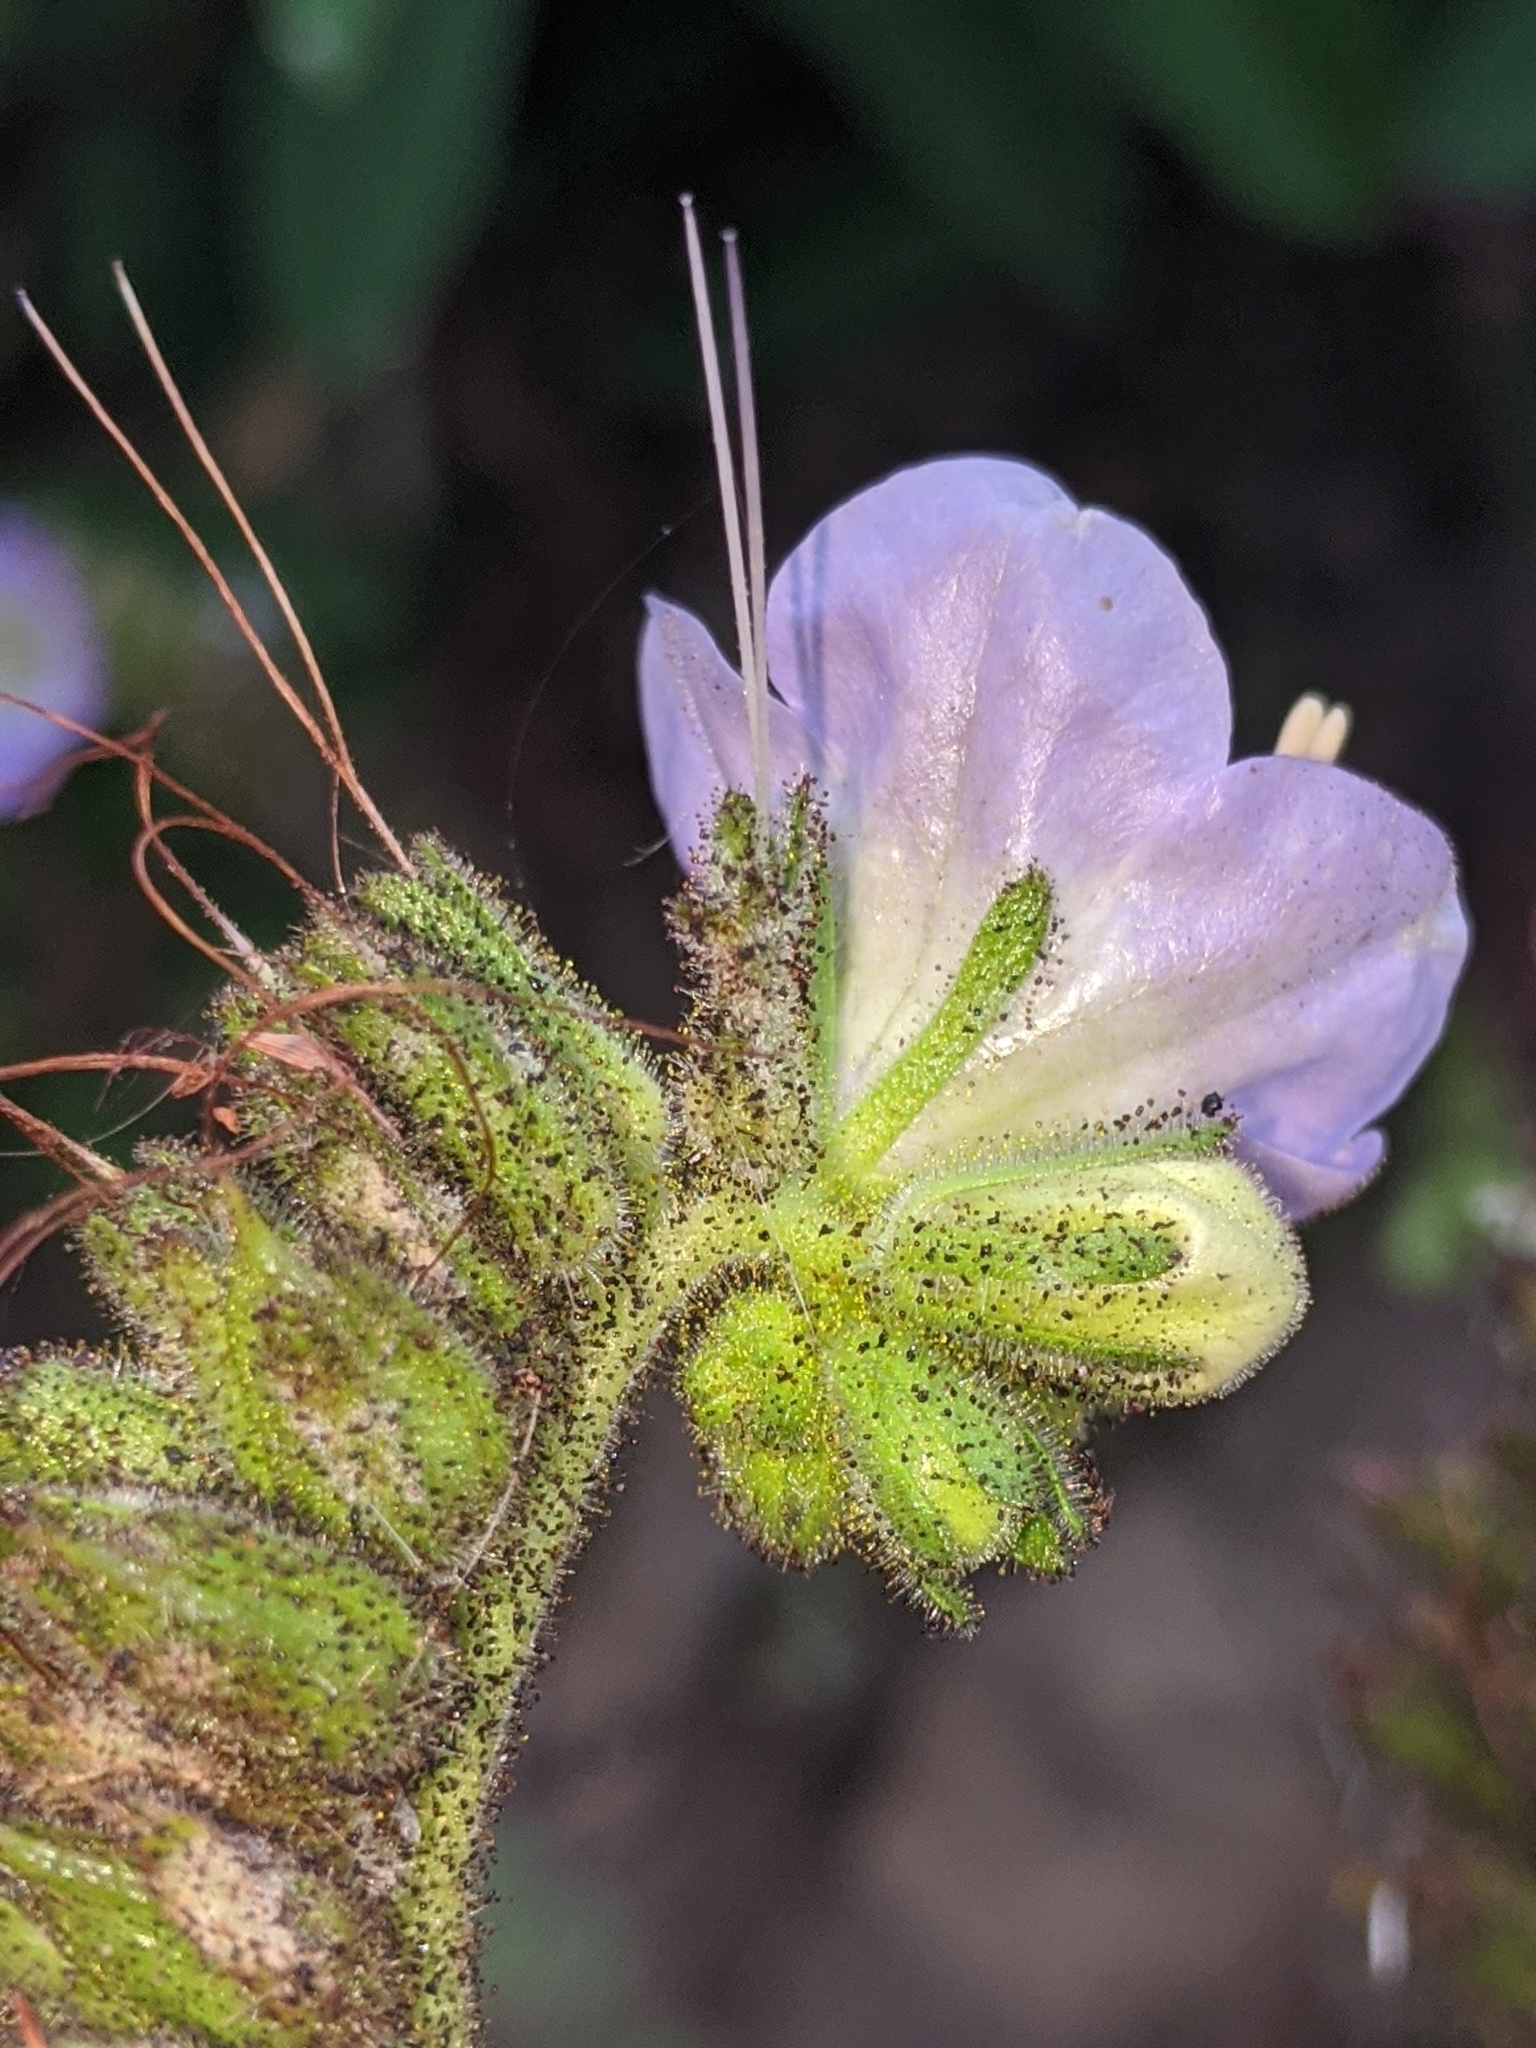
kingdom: Plantae
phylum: Tracheophyta
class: Magnoliopsida
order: Boraginales
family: Hydrophyllaceae
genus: Phacelia
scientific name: Phacelia grandiflora
